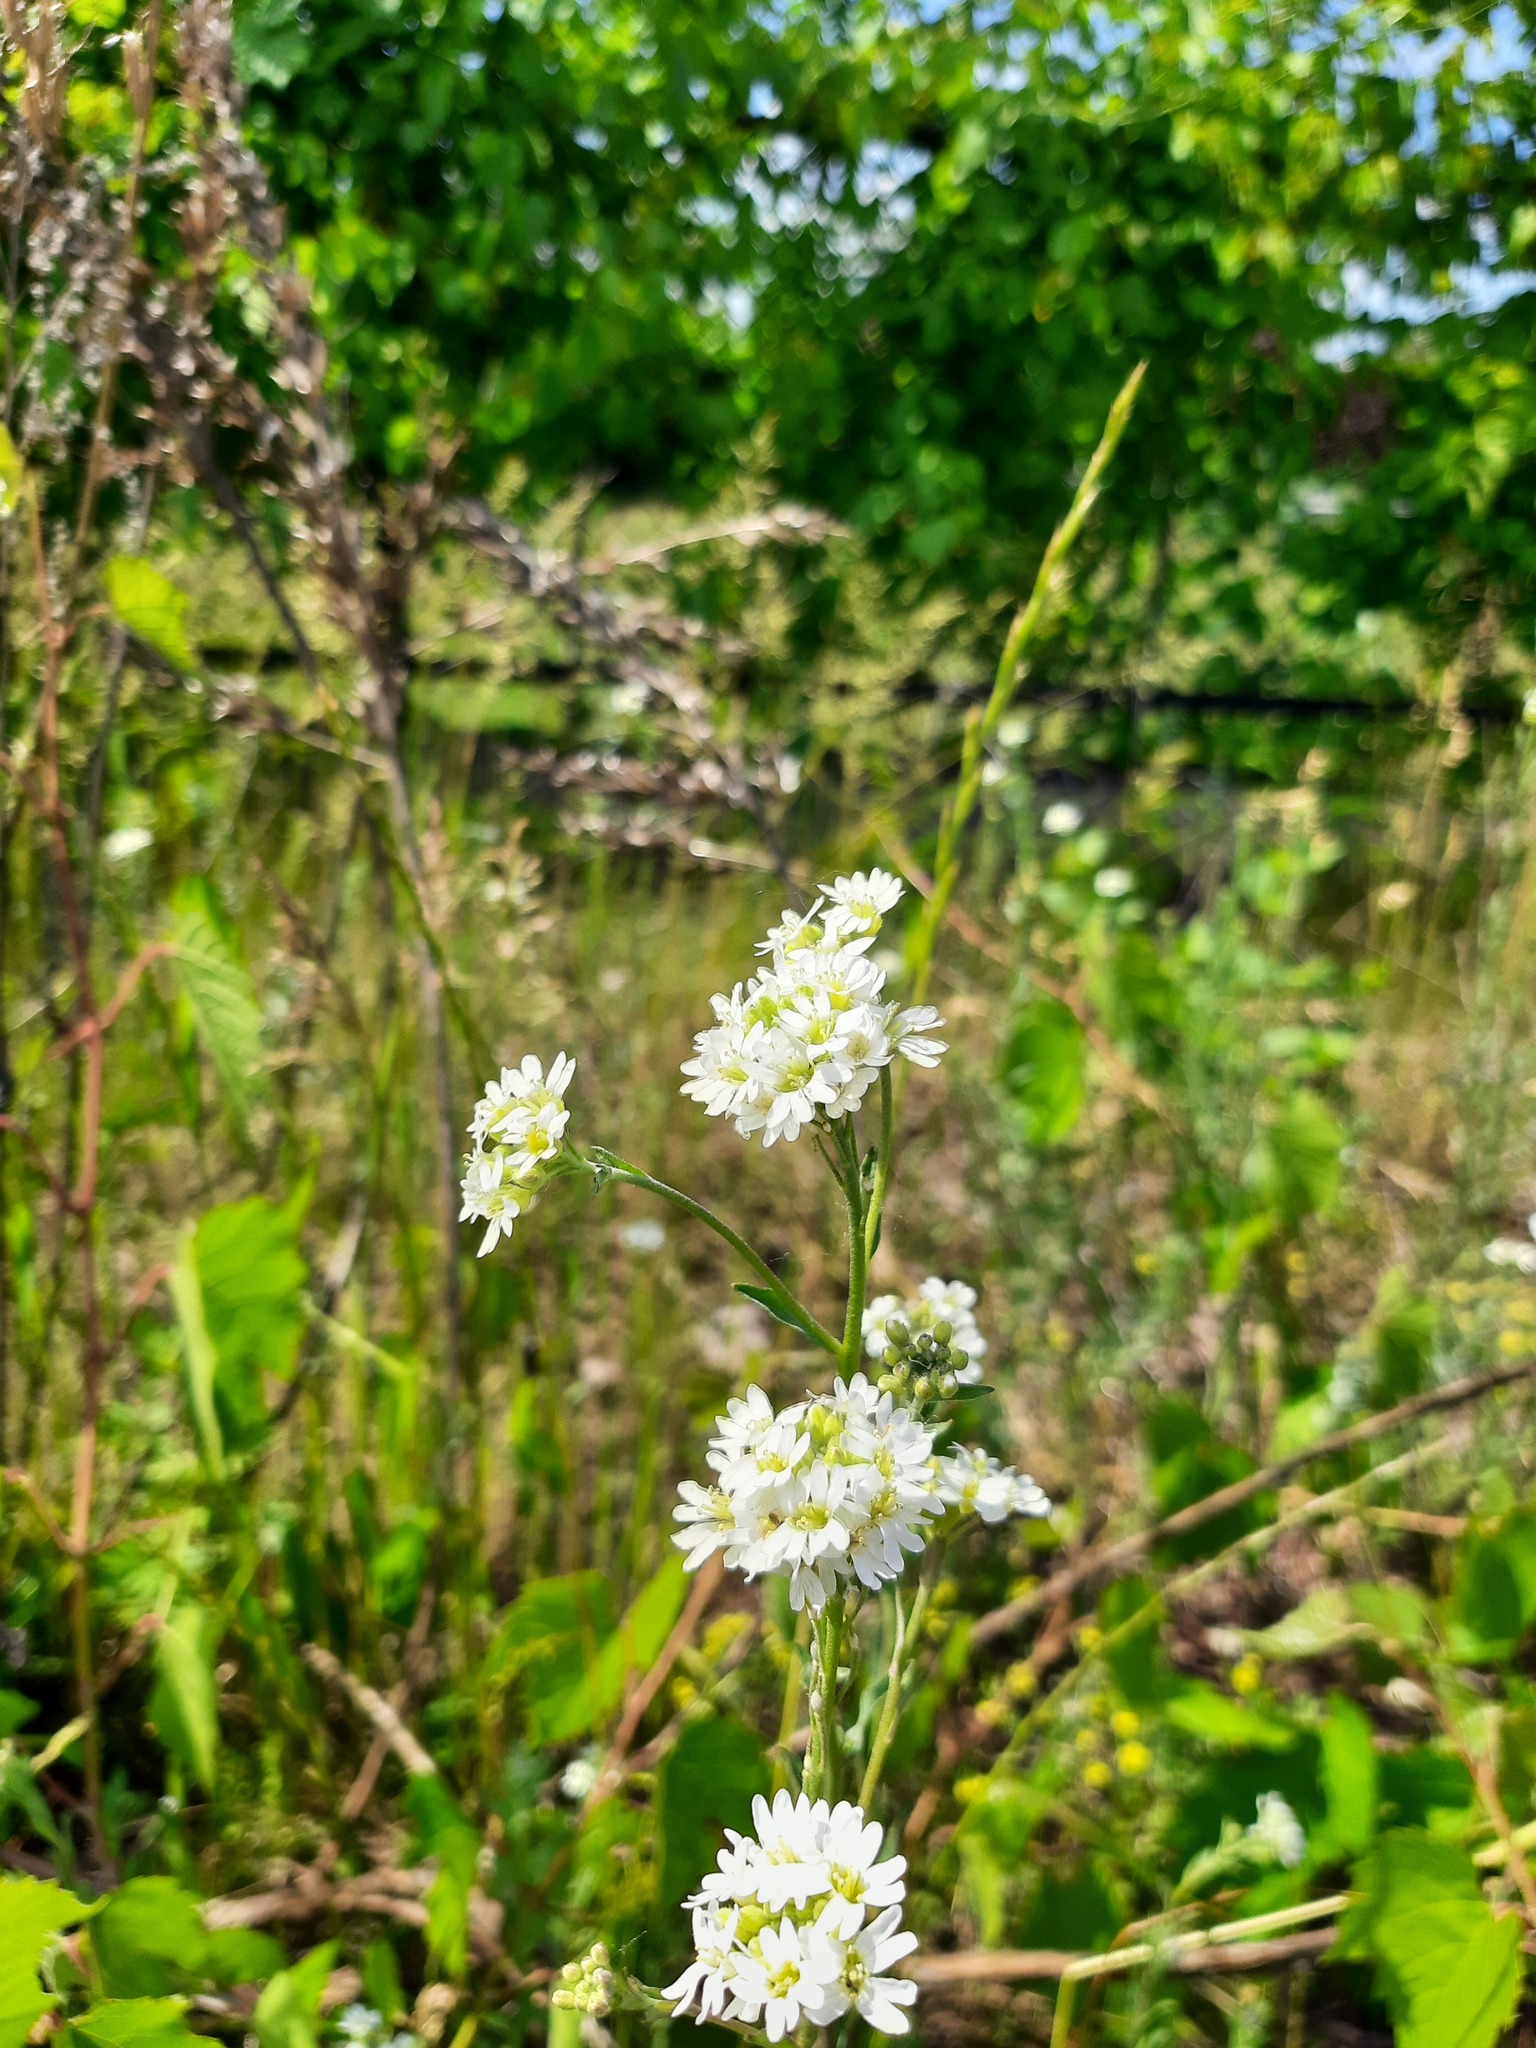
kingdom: Plantae
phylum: Tracheophyta
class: Magnoliopsida
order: Brassicales
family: Brassicaceae
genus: Berteroa
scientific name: Berteroa incana
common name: Hoary alison
